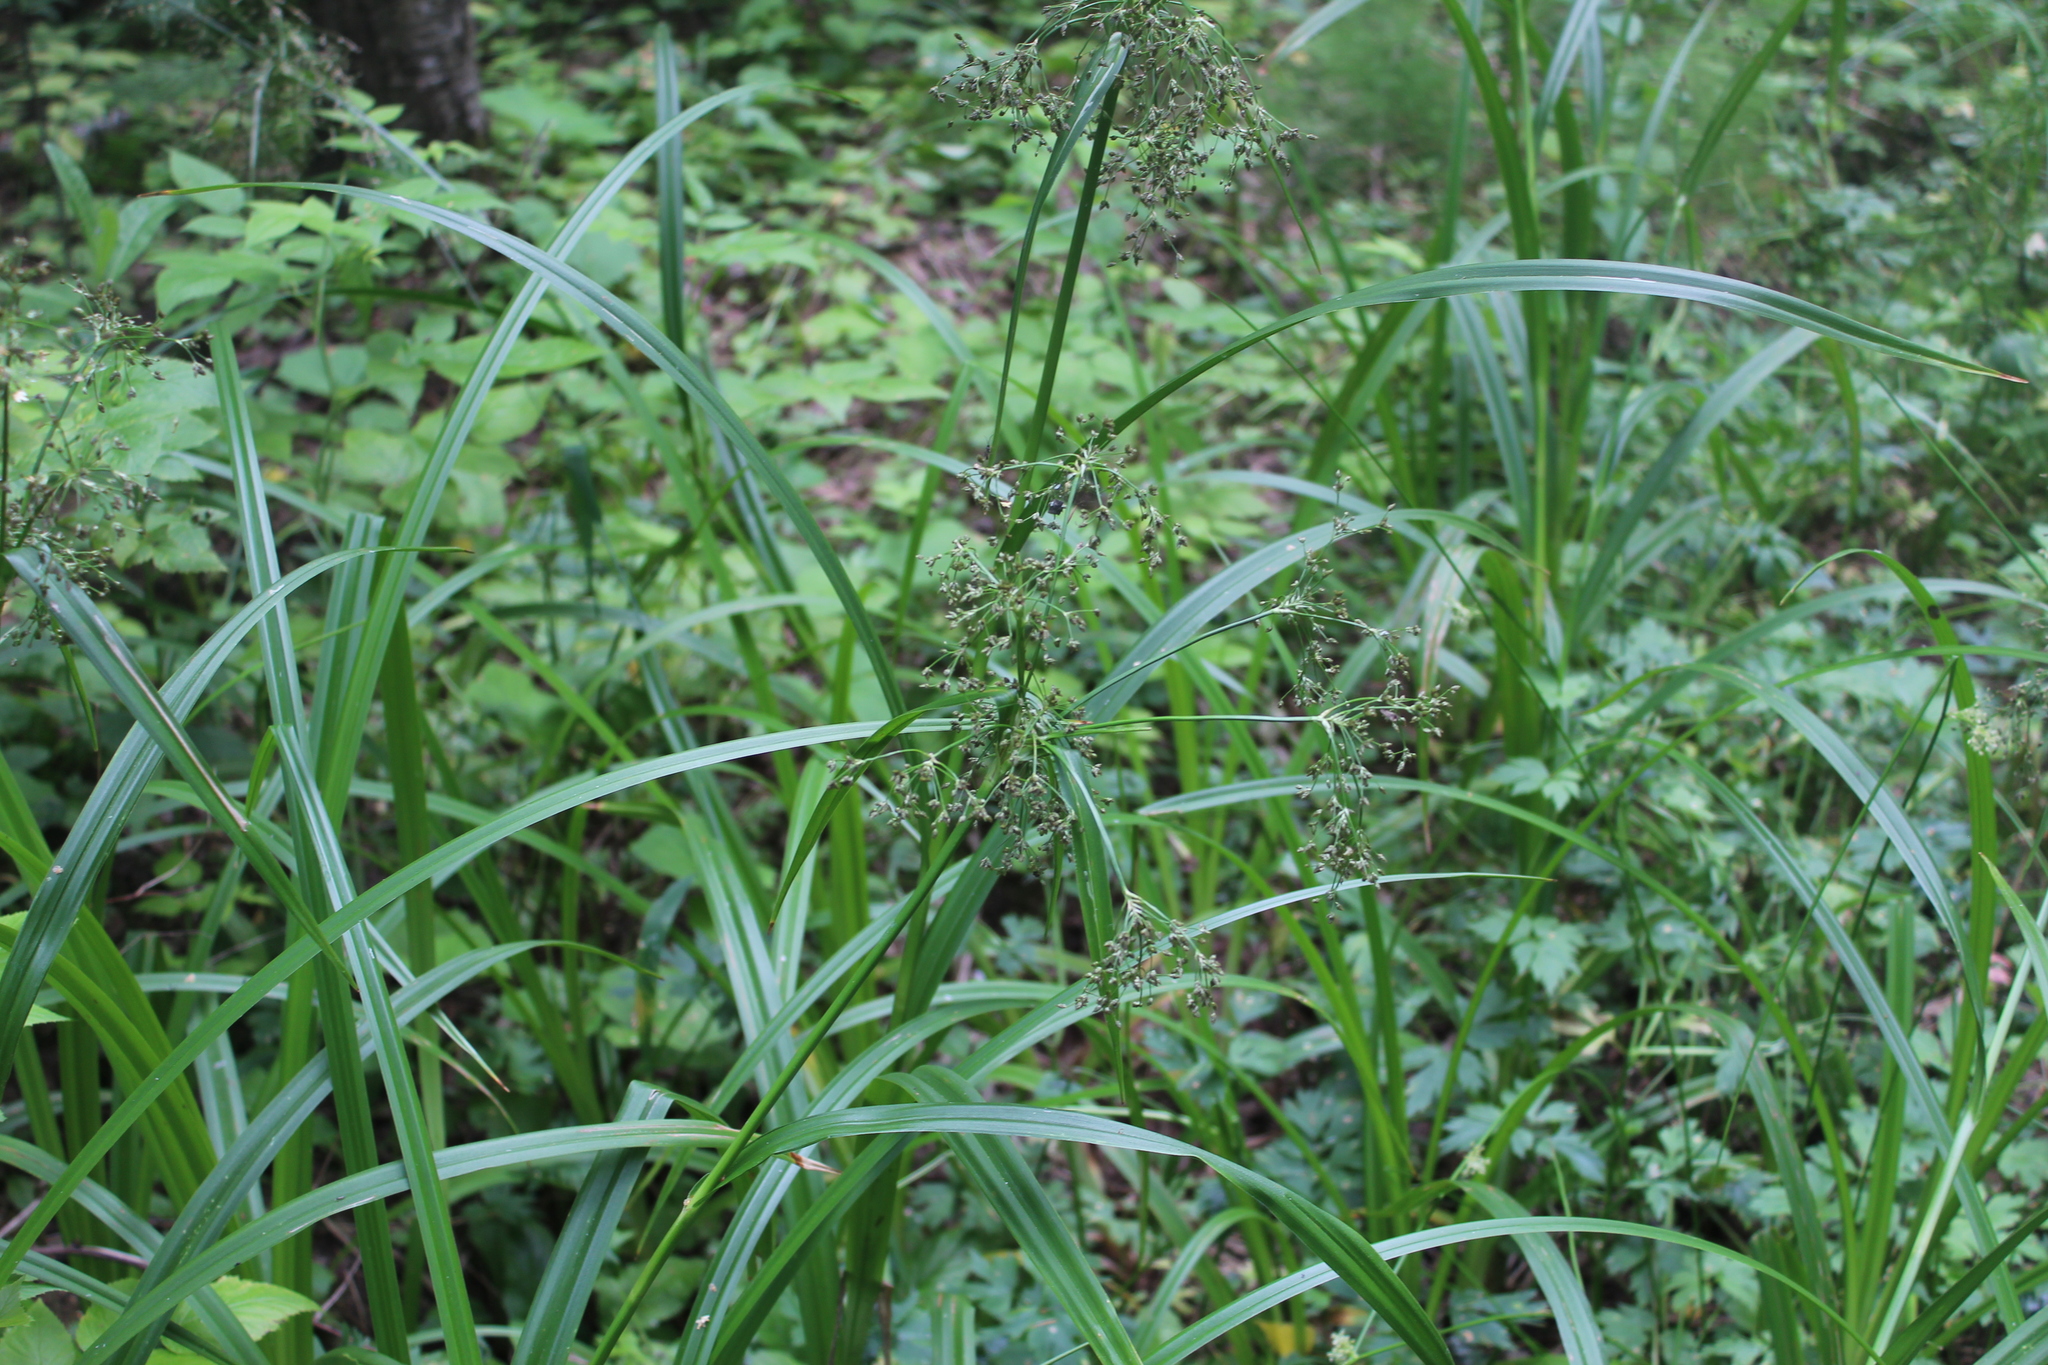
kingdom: Plantae
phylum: Tracheophyta
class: Liliopsida
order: Poales
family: Cyperaceae
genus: Scirpus
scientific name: Scirpus sylvaticus
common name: Wood club-rush
